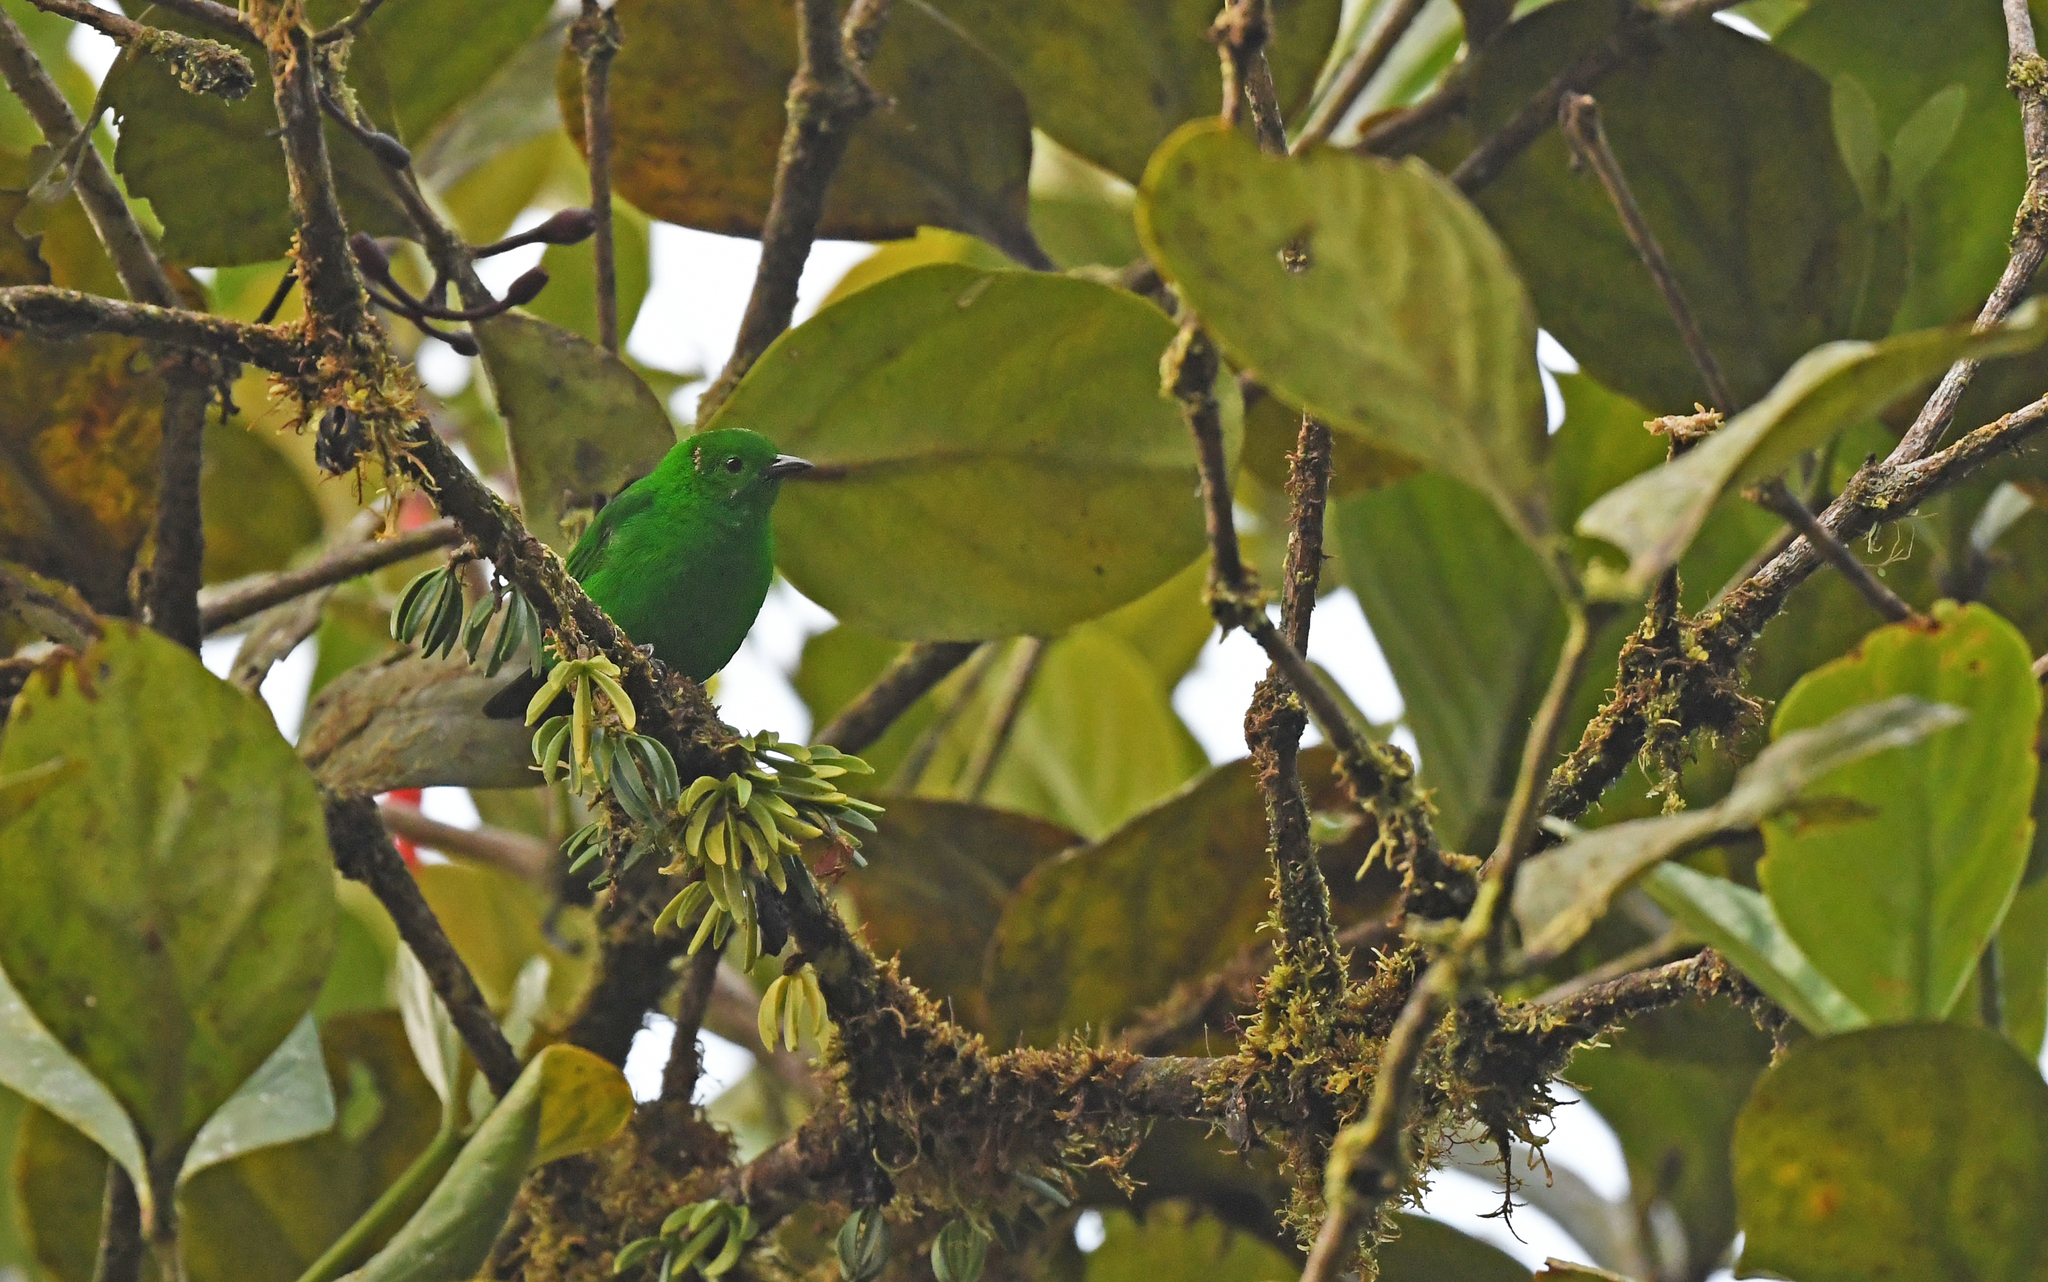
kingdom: Animalia
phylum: Chordata
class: Aves
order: Passeriformes
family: Thraupidae
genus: Chlorochrysa
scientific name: Chlorochrysa phoenicotis
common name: Glistening-green tanager
